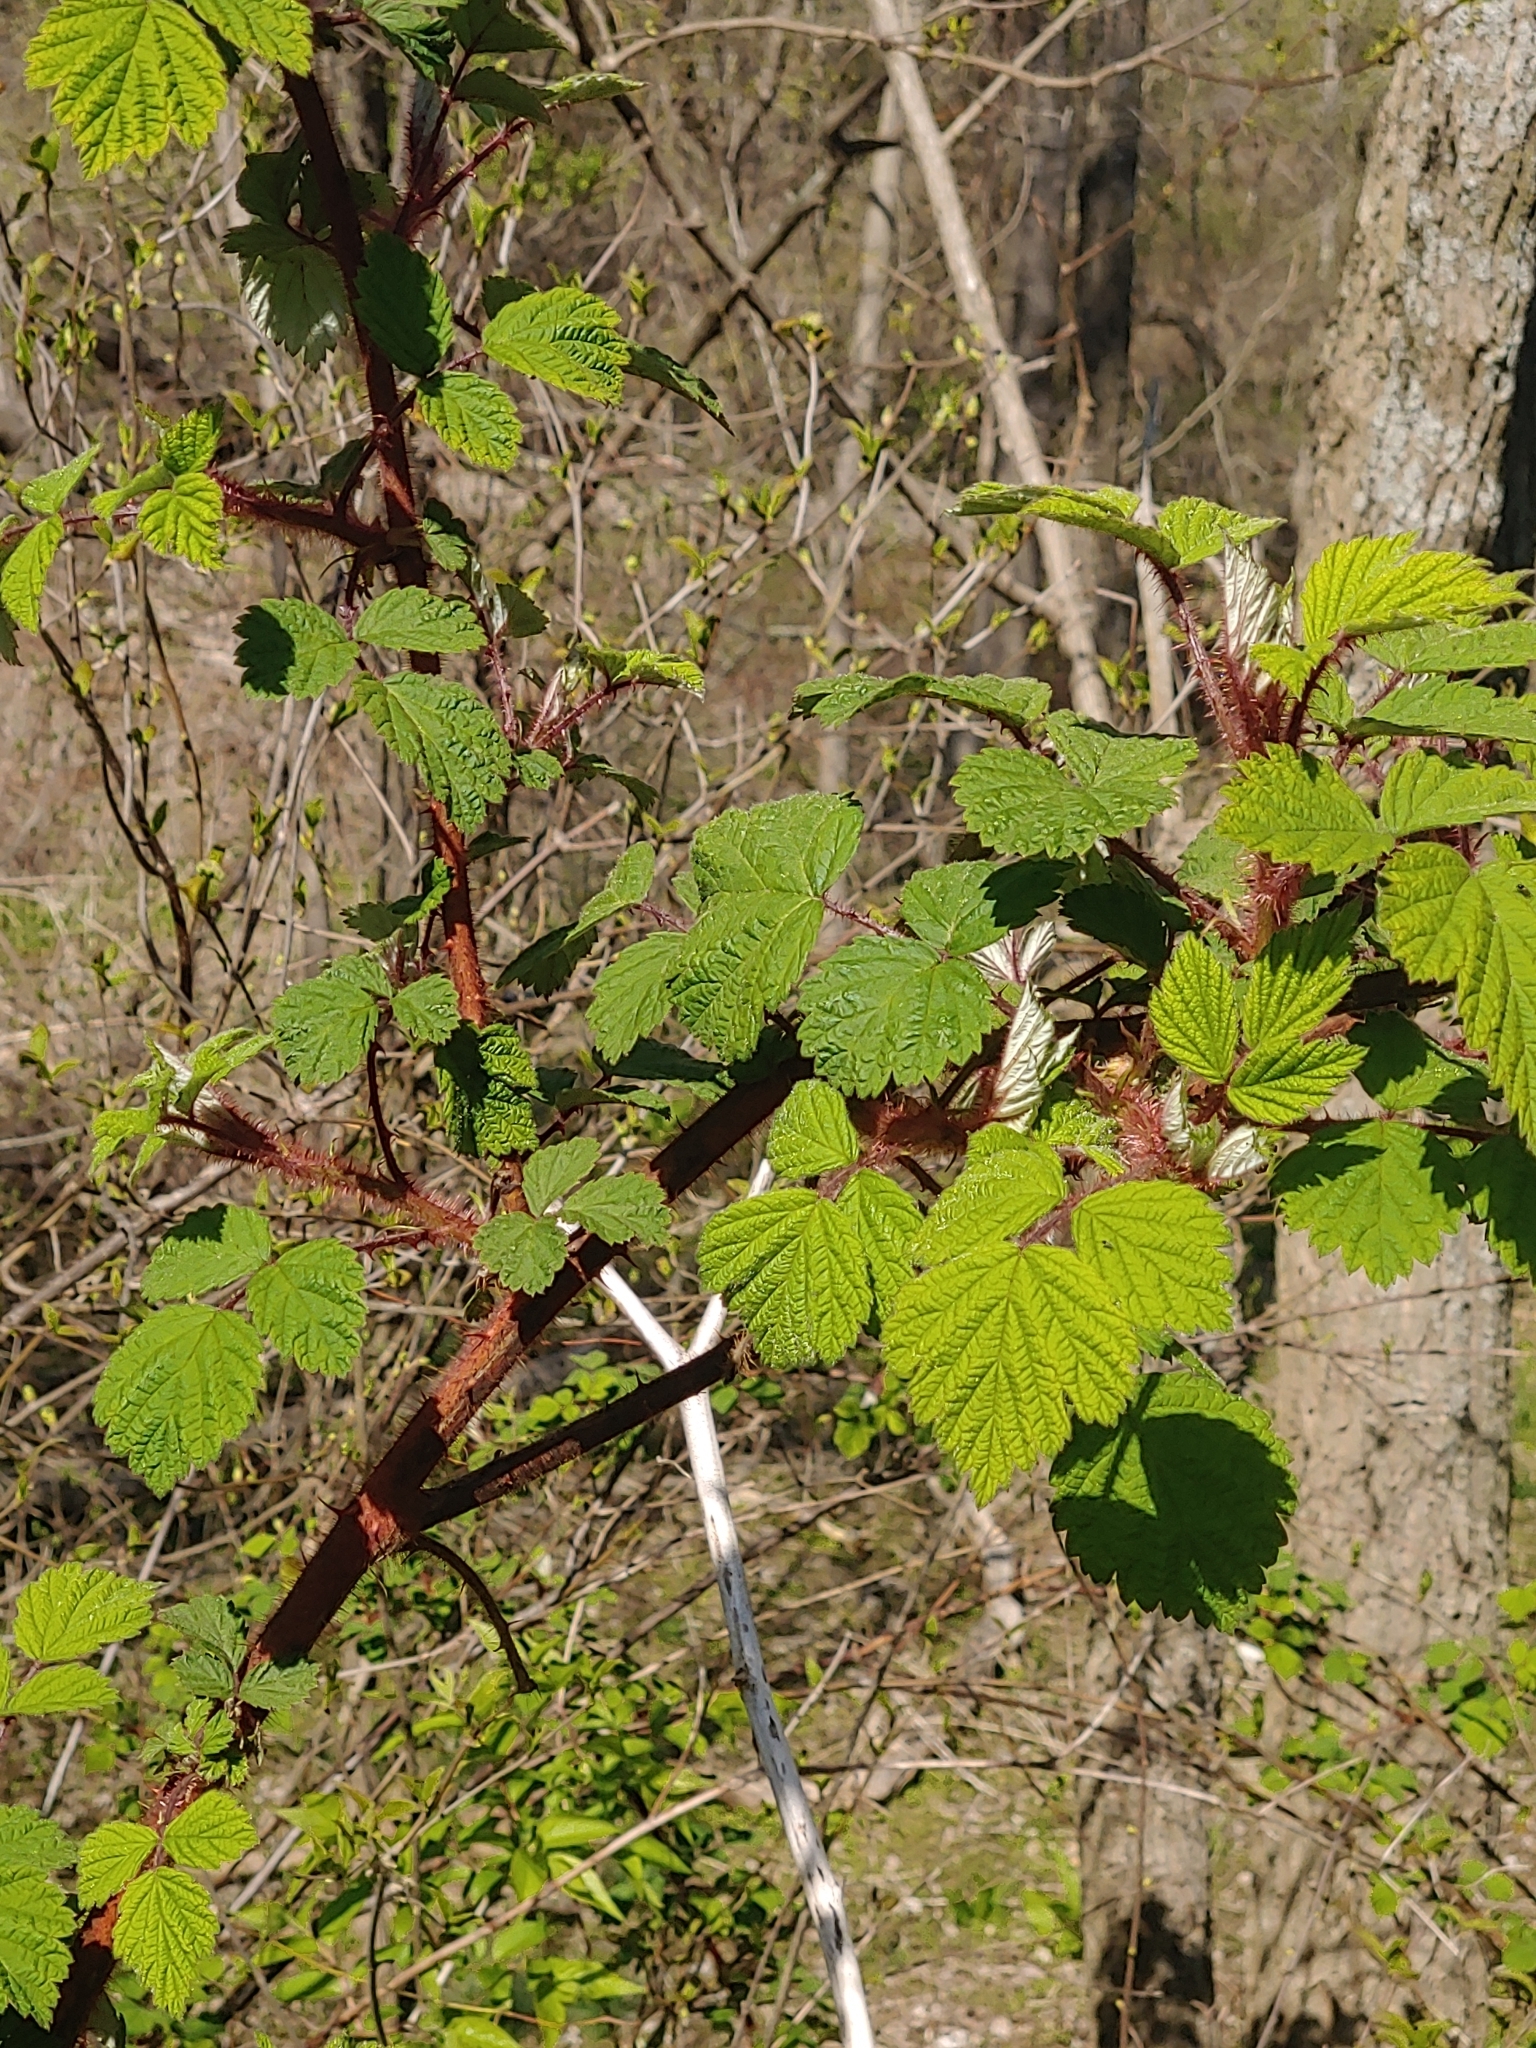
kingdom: Plantae
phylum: Tracheophyta
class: Magnoliopsida
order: Rosales
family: Rosaceae
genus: Rubus
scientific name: Rubus phoenicolasius
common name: Japanese wineberry
